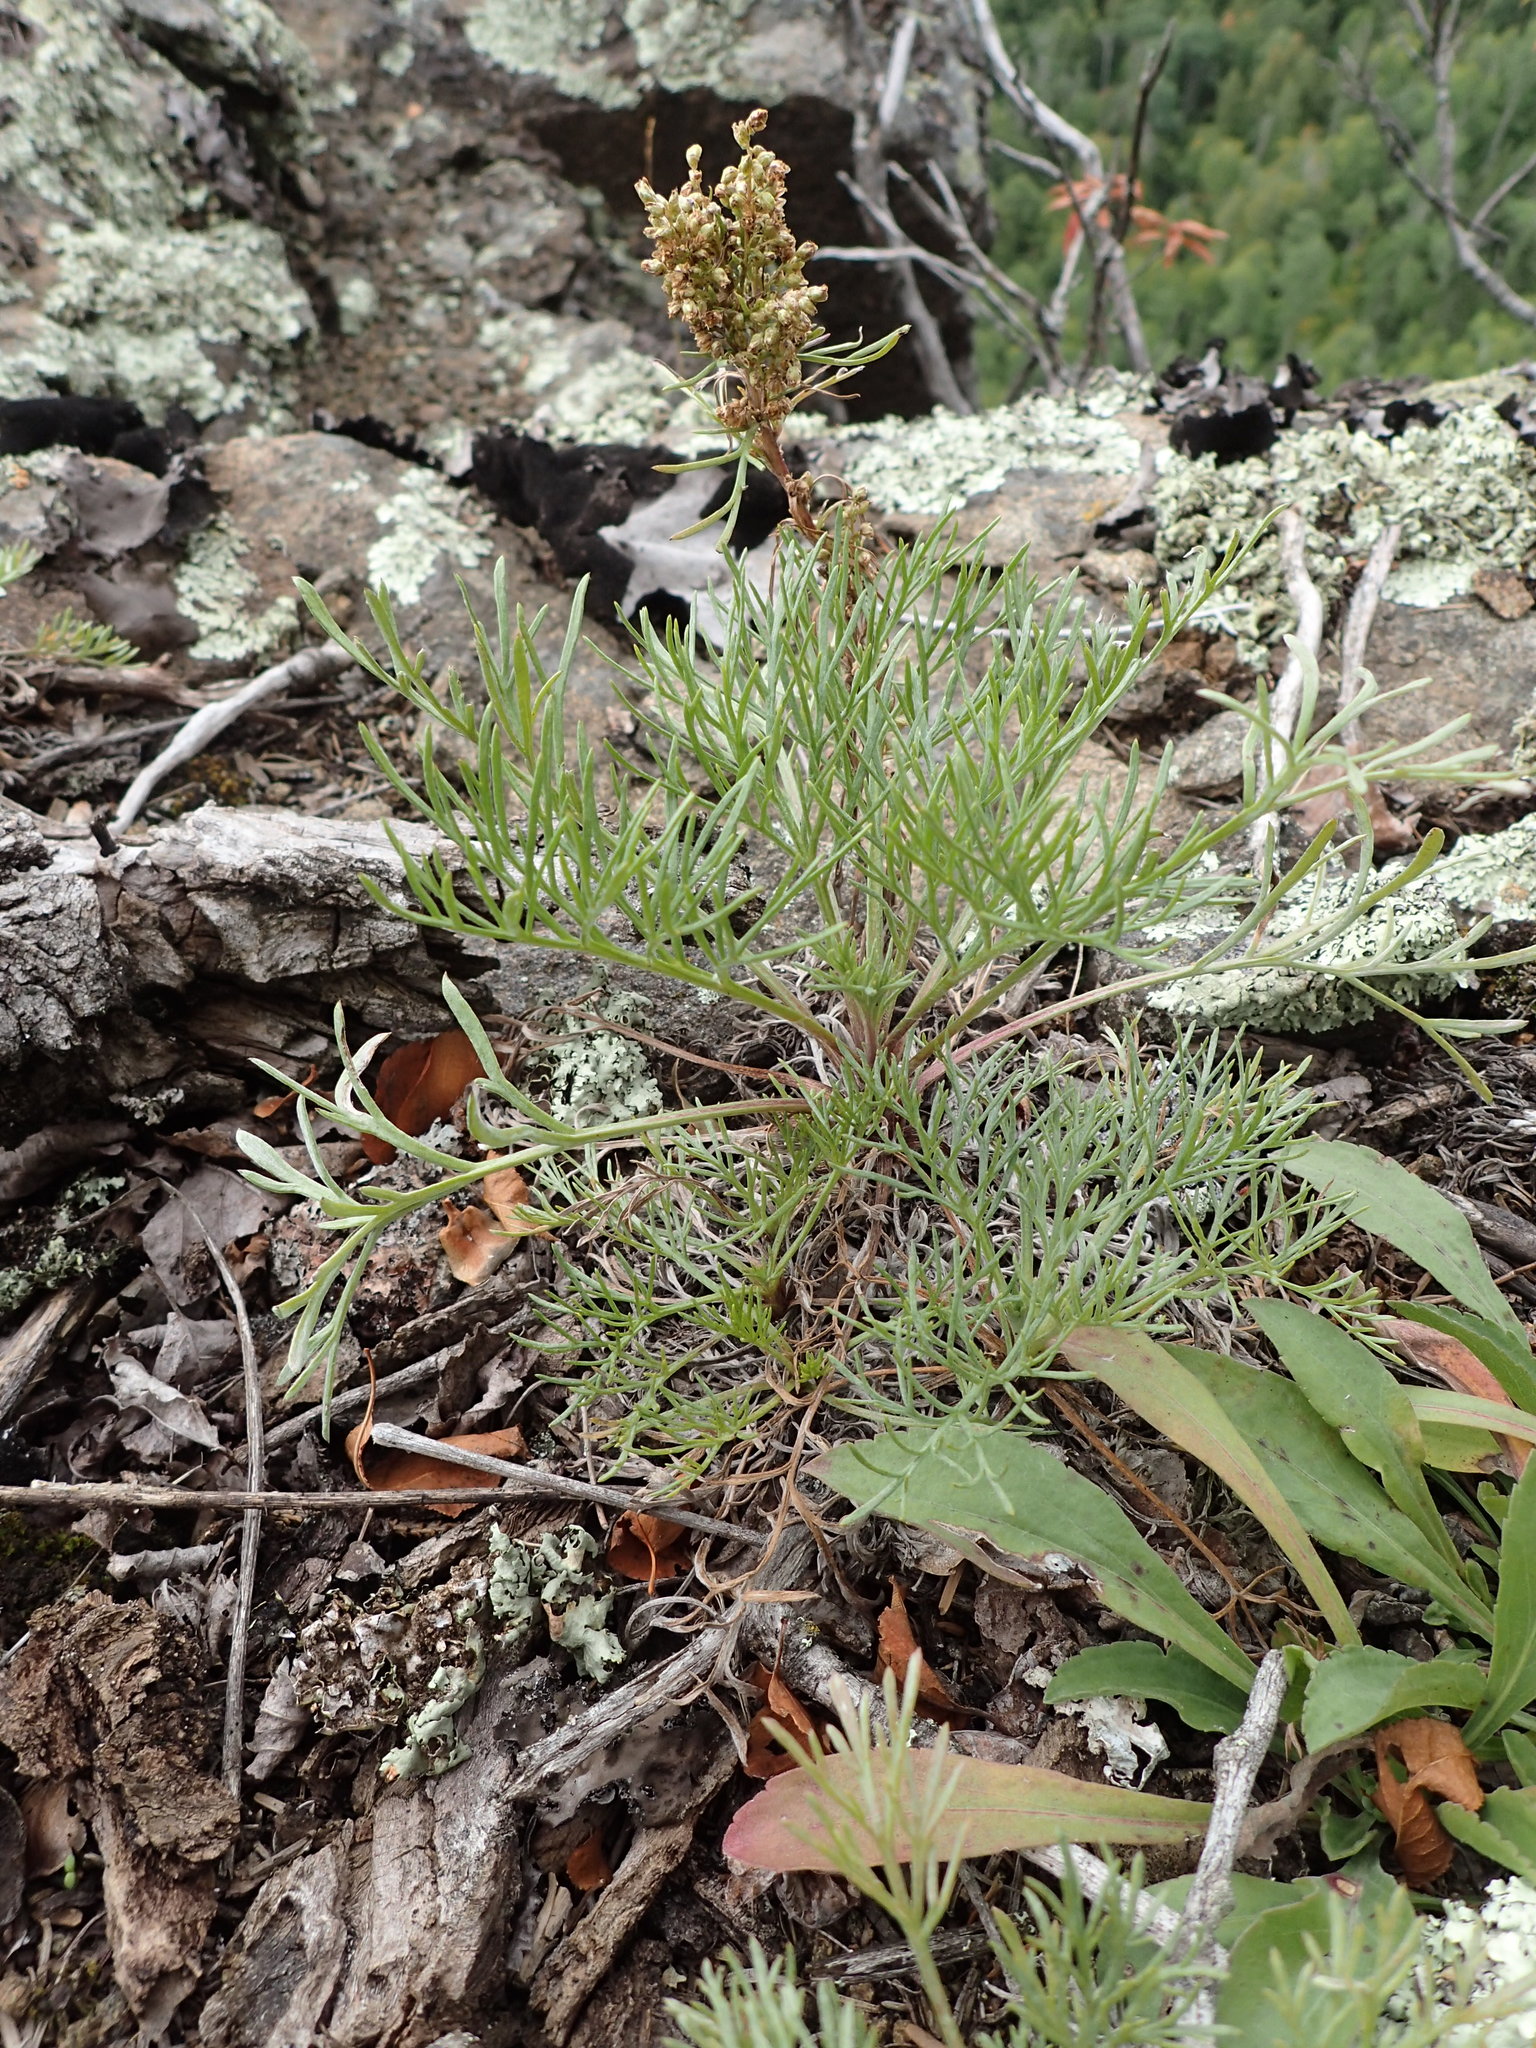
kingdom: Plantae
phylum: Tracheophyta
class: Magnoliopsida
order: Asterales
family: Asteraceae
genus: Artemisia
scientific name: Artemisia campestris
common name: Field wormwood
